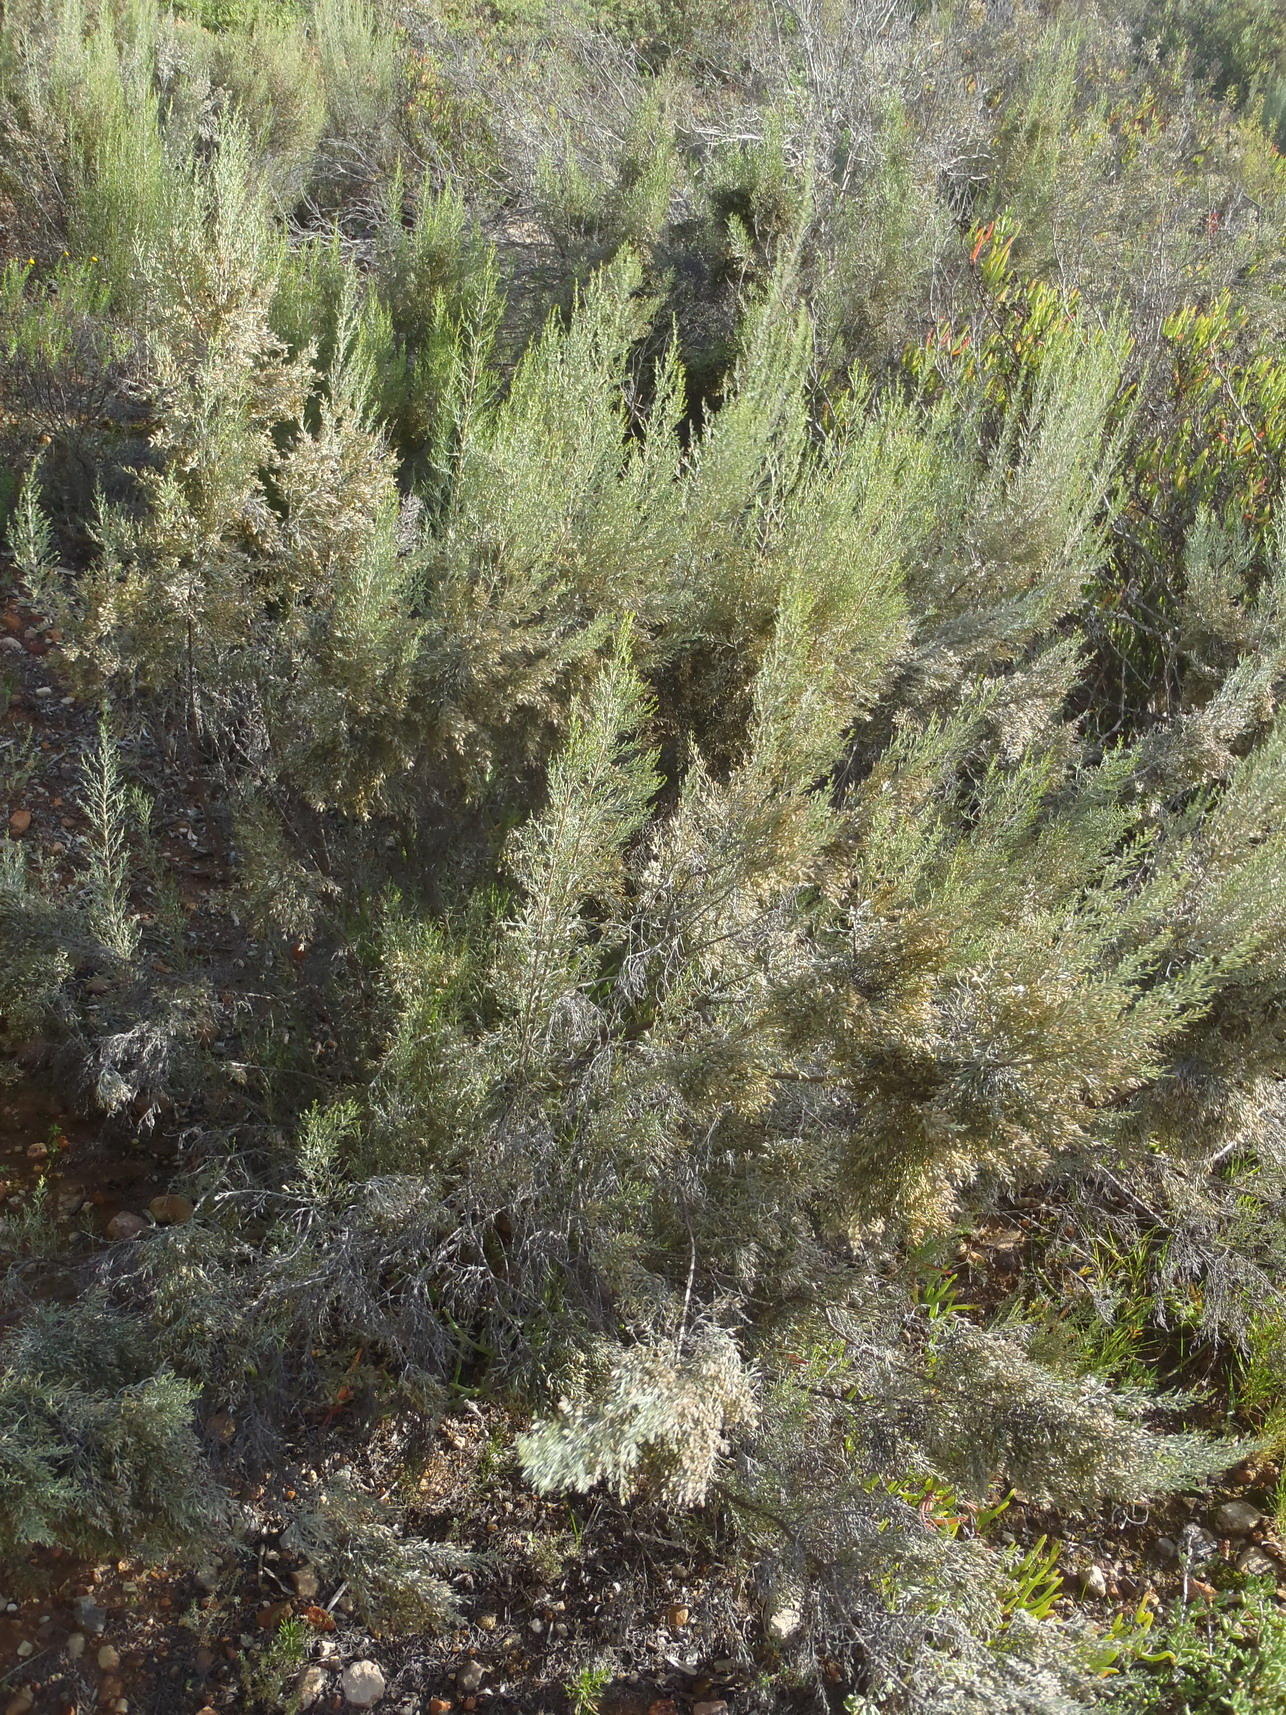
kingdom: Plantae
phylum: Tracheophyta
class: Magnoliopsida
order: Asterales
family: Asteraceae
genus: Dicerothamnus
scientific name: Dicerothamnus rhinocerotis
